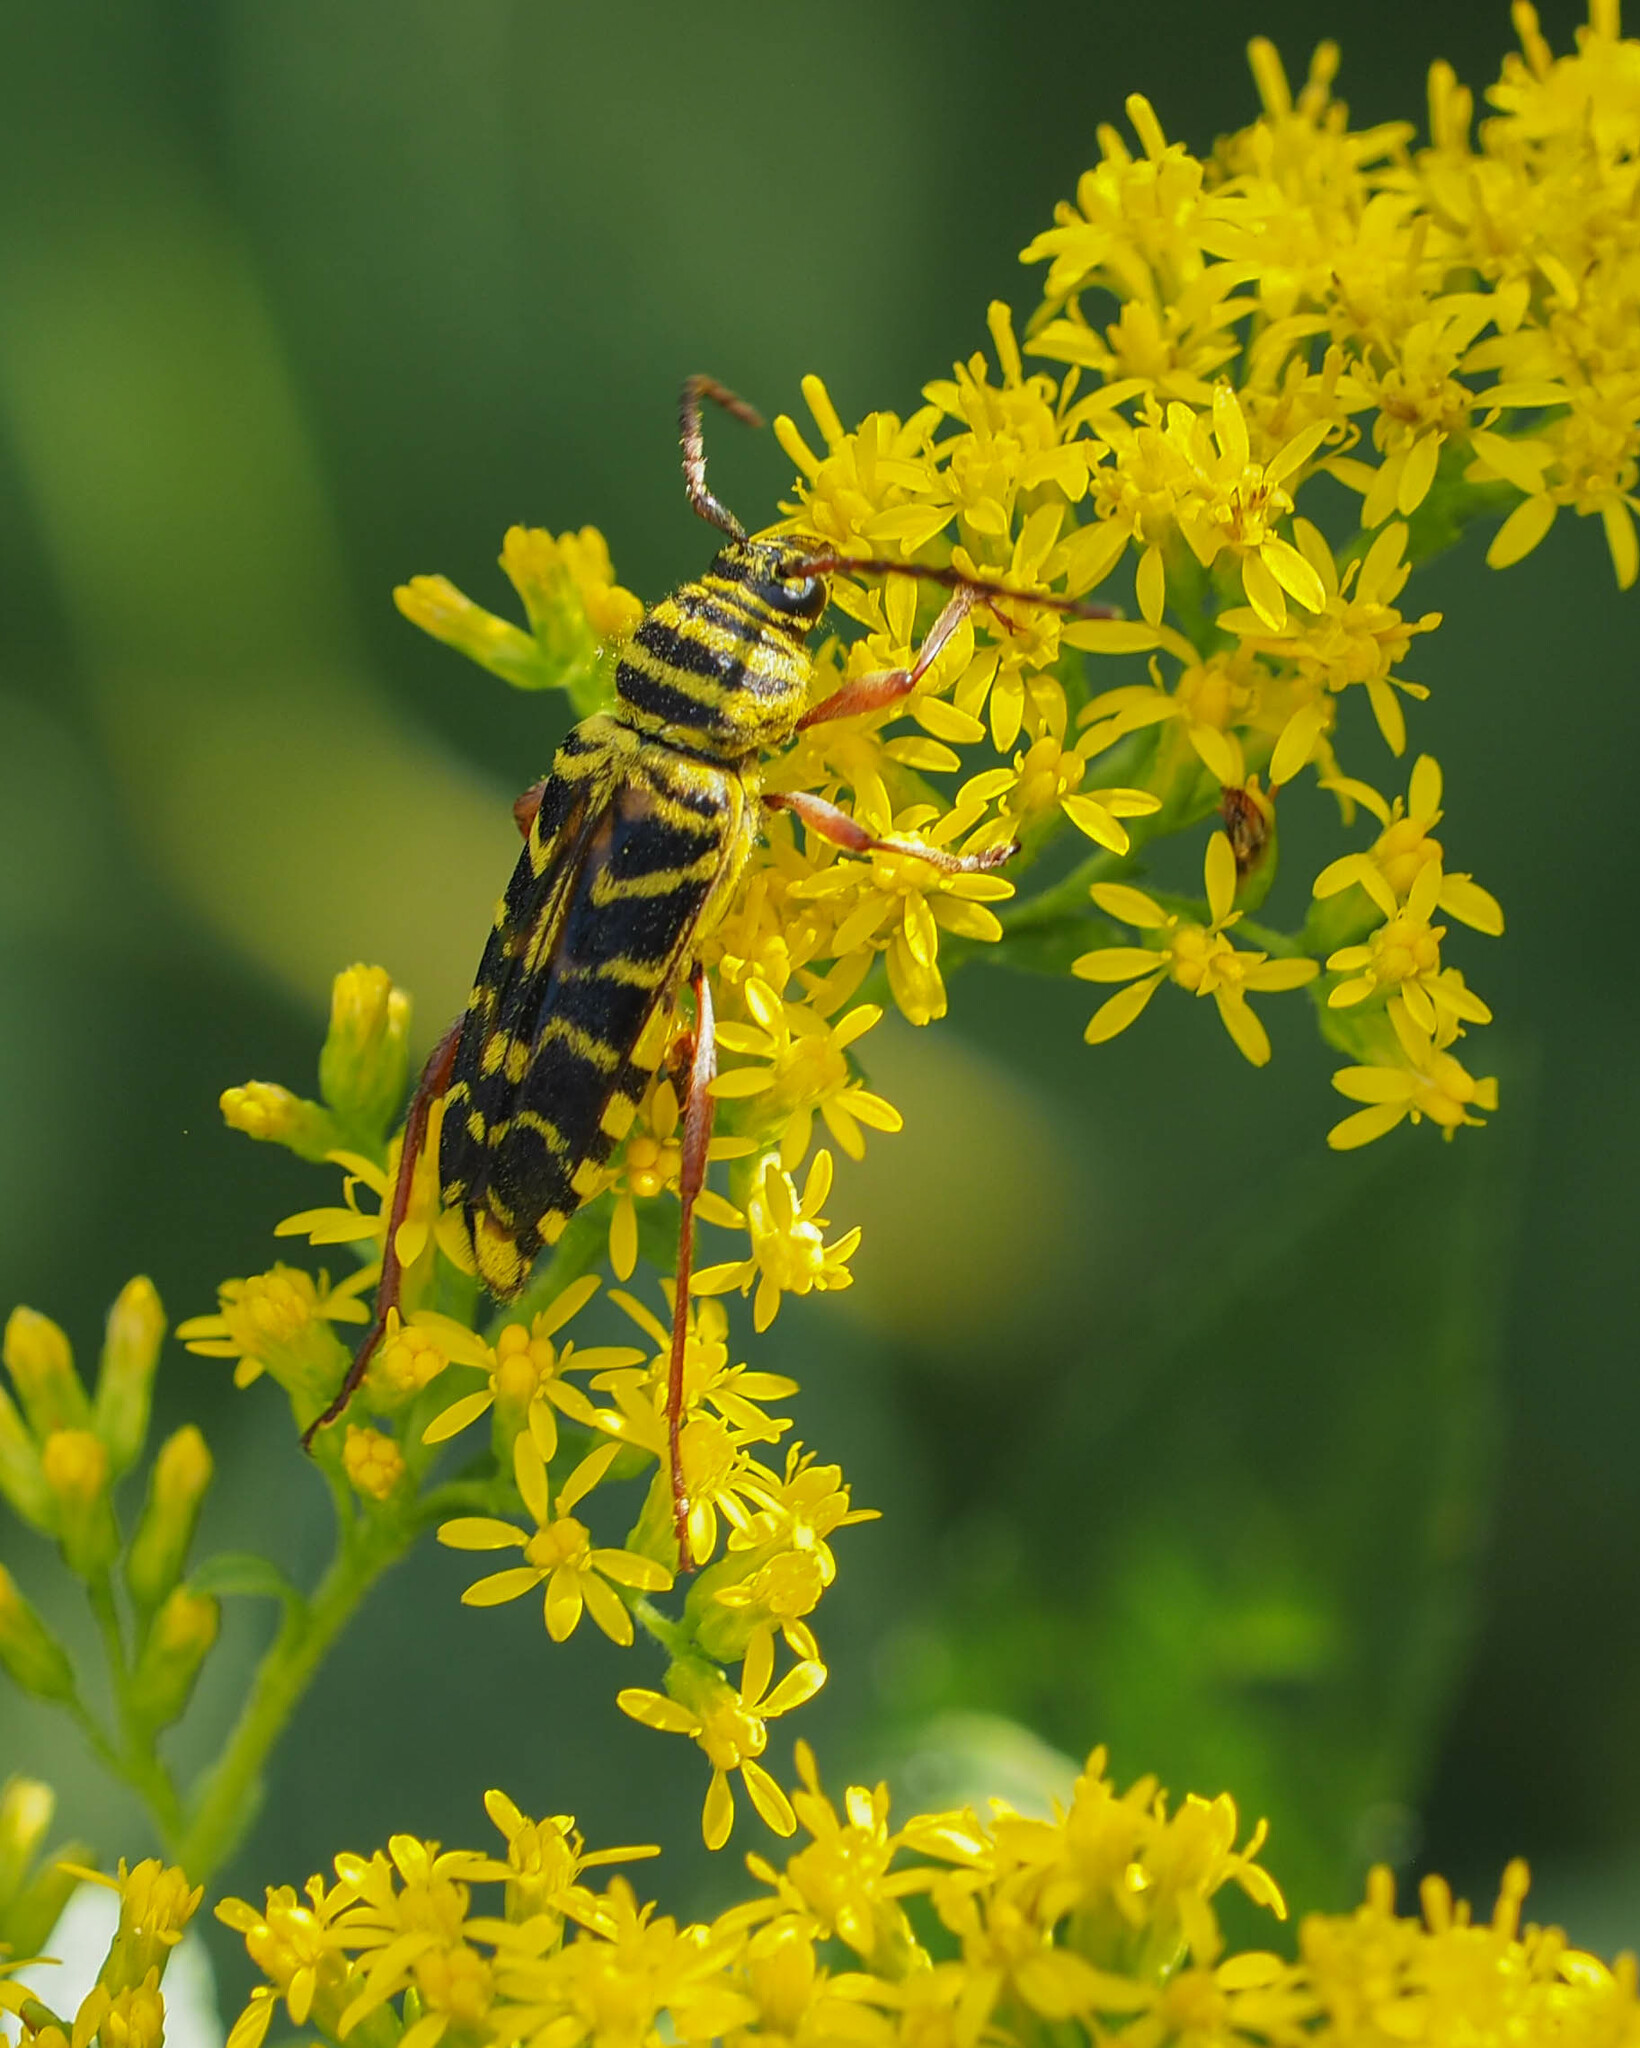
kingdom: Animalia
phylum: Arthropoda
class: Insecta
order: Coleoptera
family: Cerambycidae
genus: Megacyllene
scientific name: Megacyllene robiniae
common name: Locust borer
